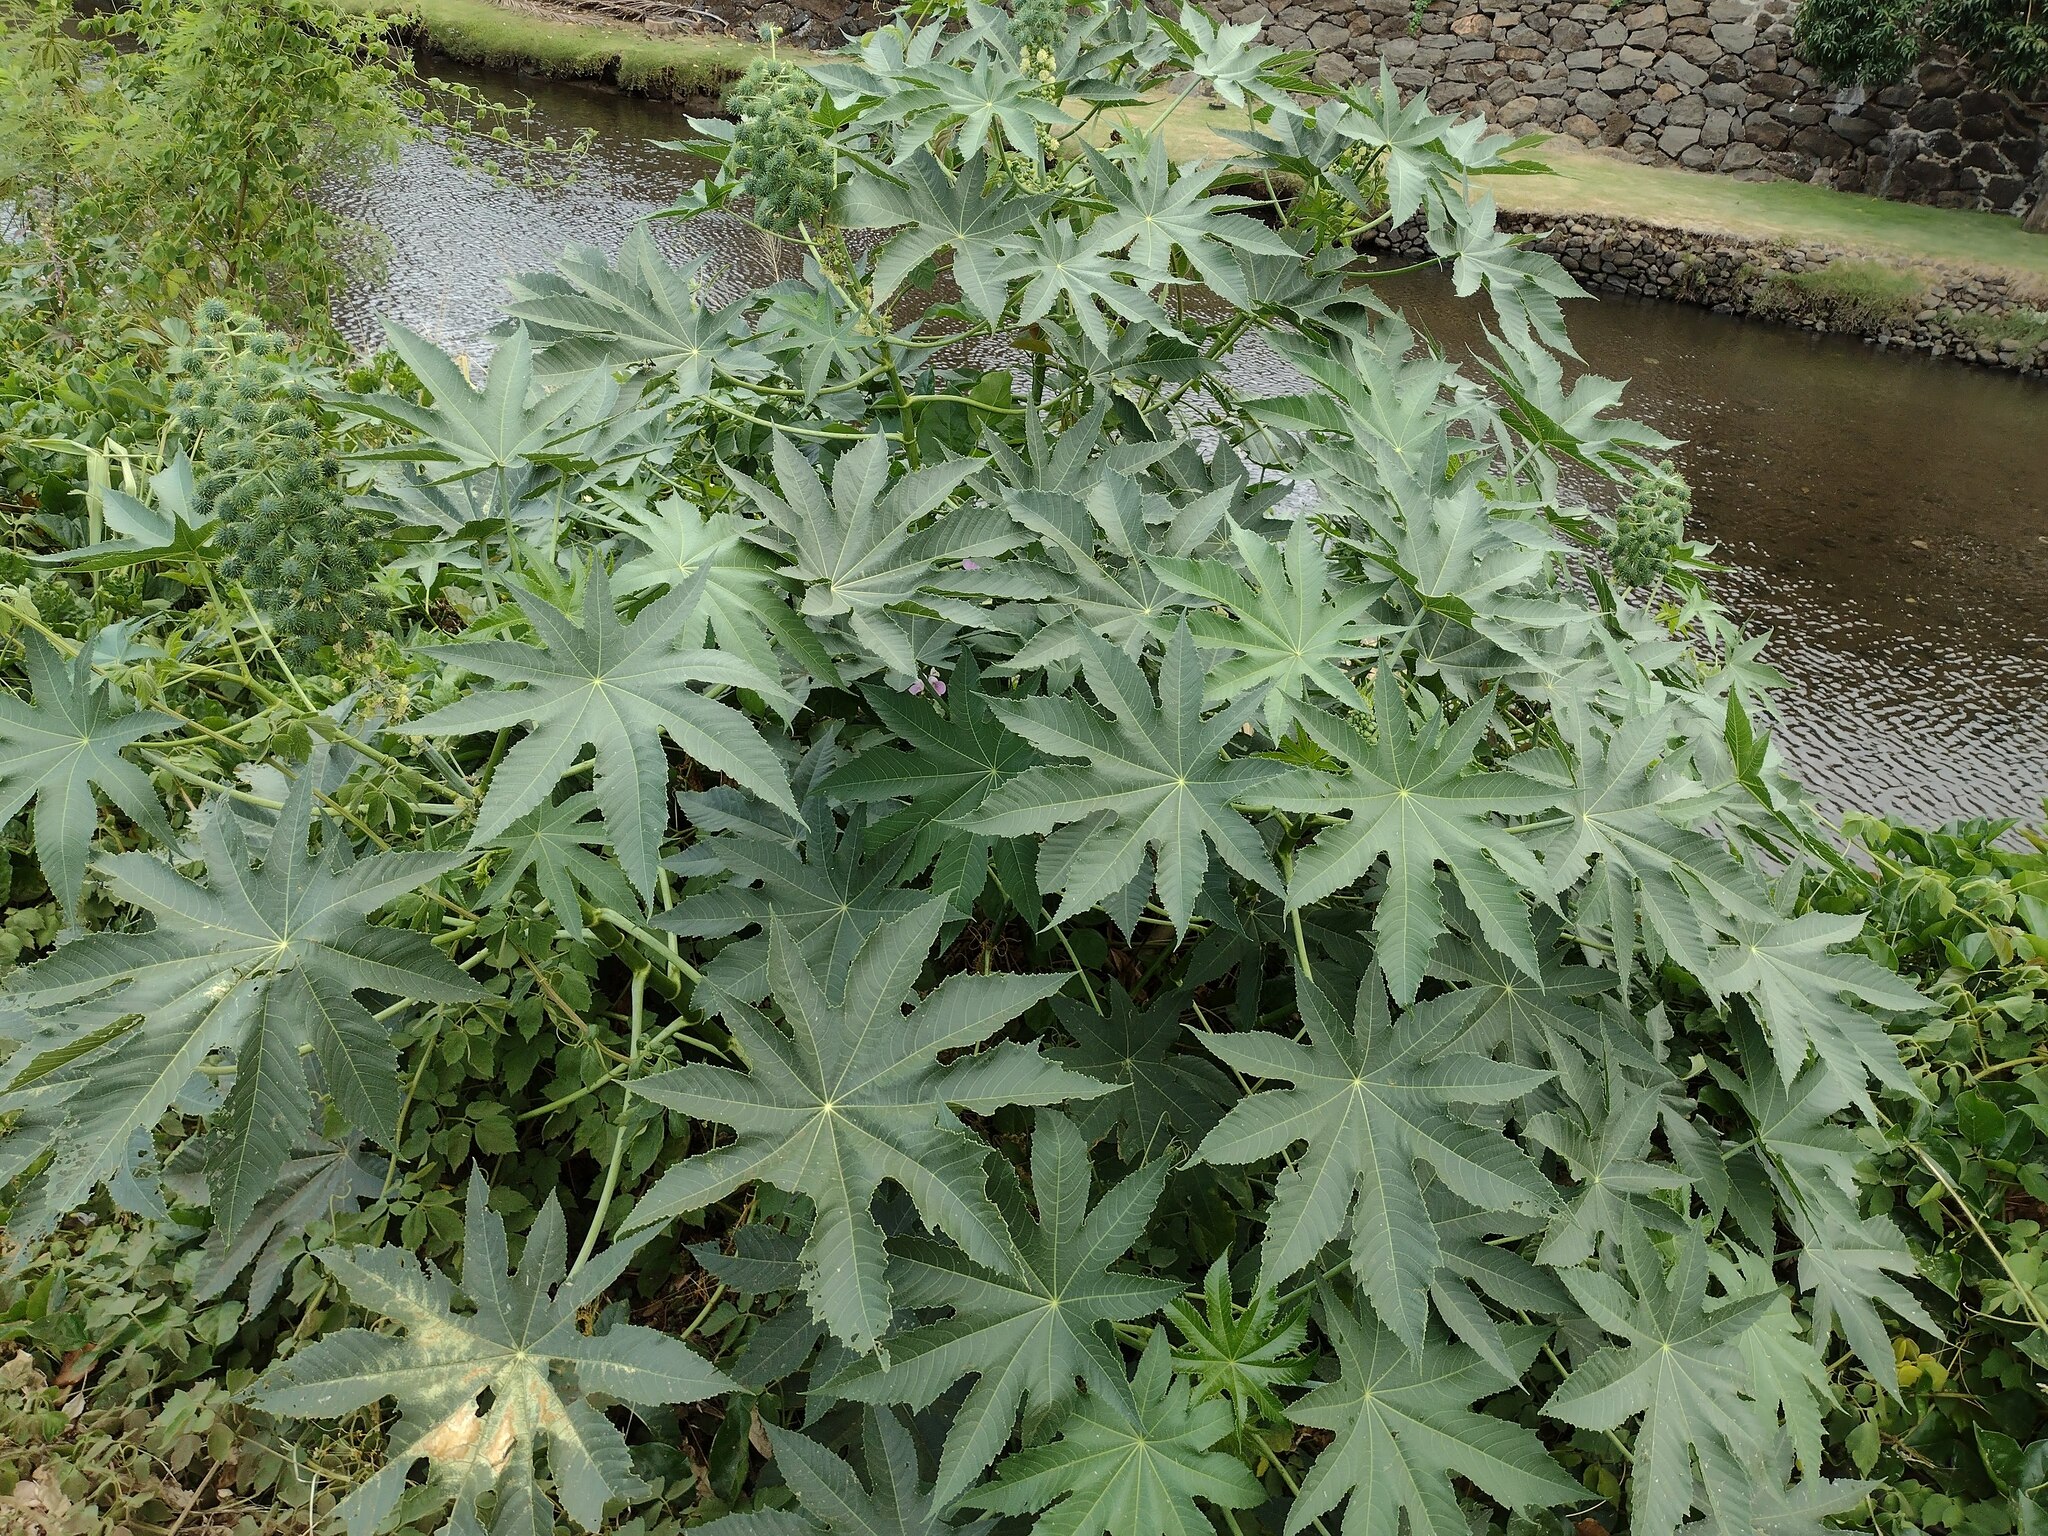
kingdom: Plantae
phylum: Tracheophyta
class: Magnoliopsida
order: Malpighiales
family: Euphorbiaceae
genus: Ricinus
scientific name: Ricinus communis
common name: Castor-oil-plant
